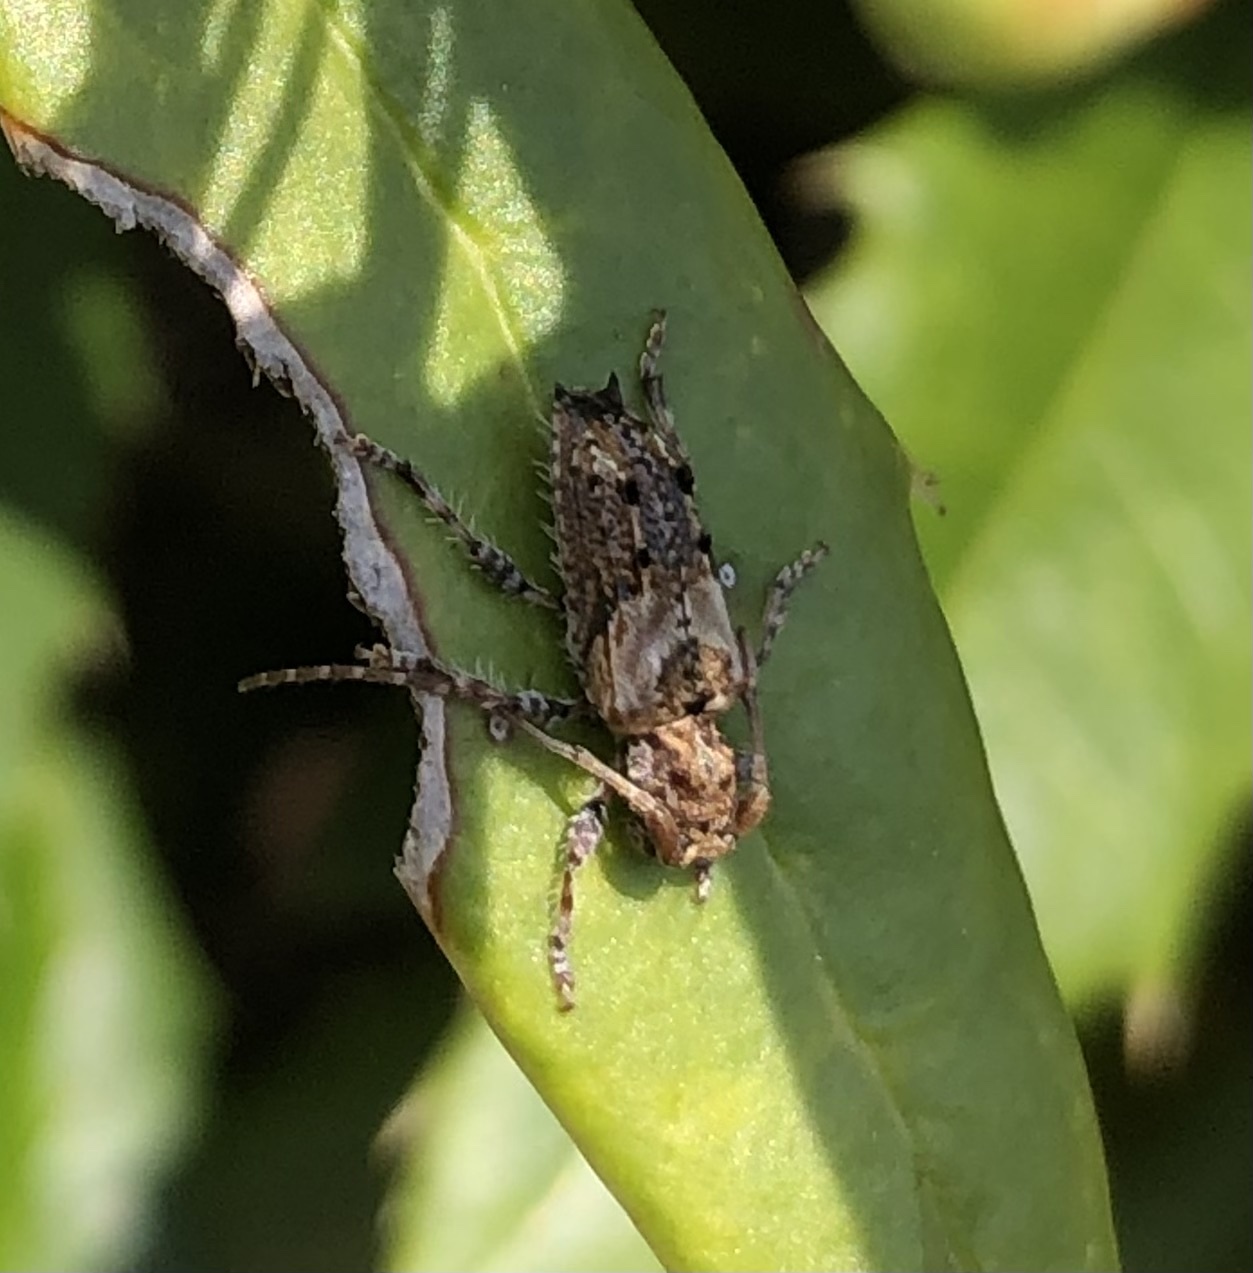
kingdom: Animalia
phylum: Arthropoda
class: Insecta
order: Coleoptera
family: Cerambycidae
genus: Pogonocherus
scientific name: Pogonocherus hispidus
